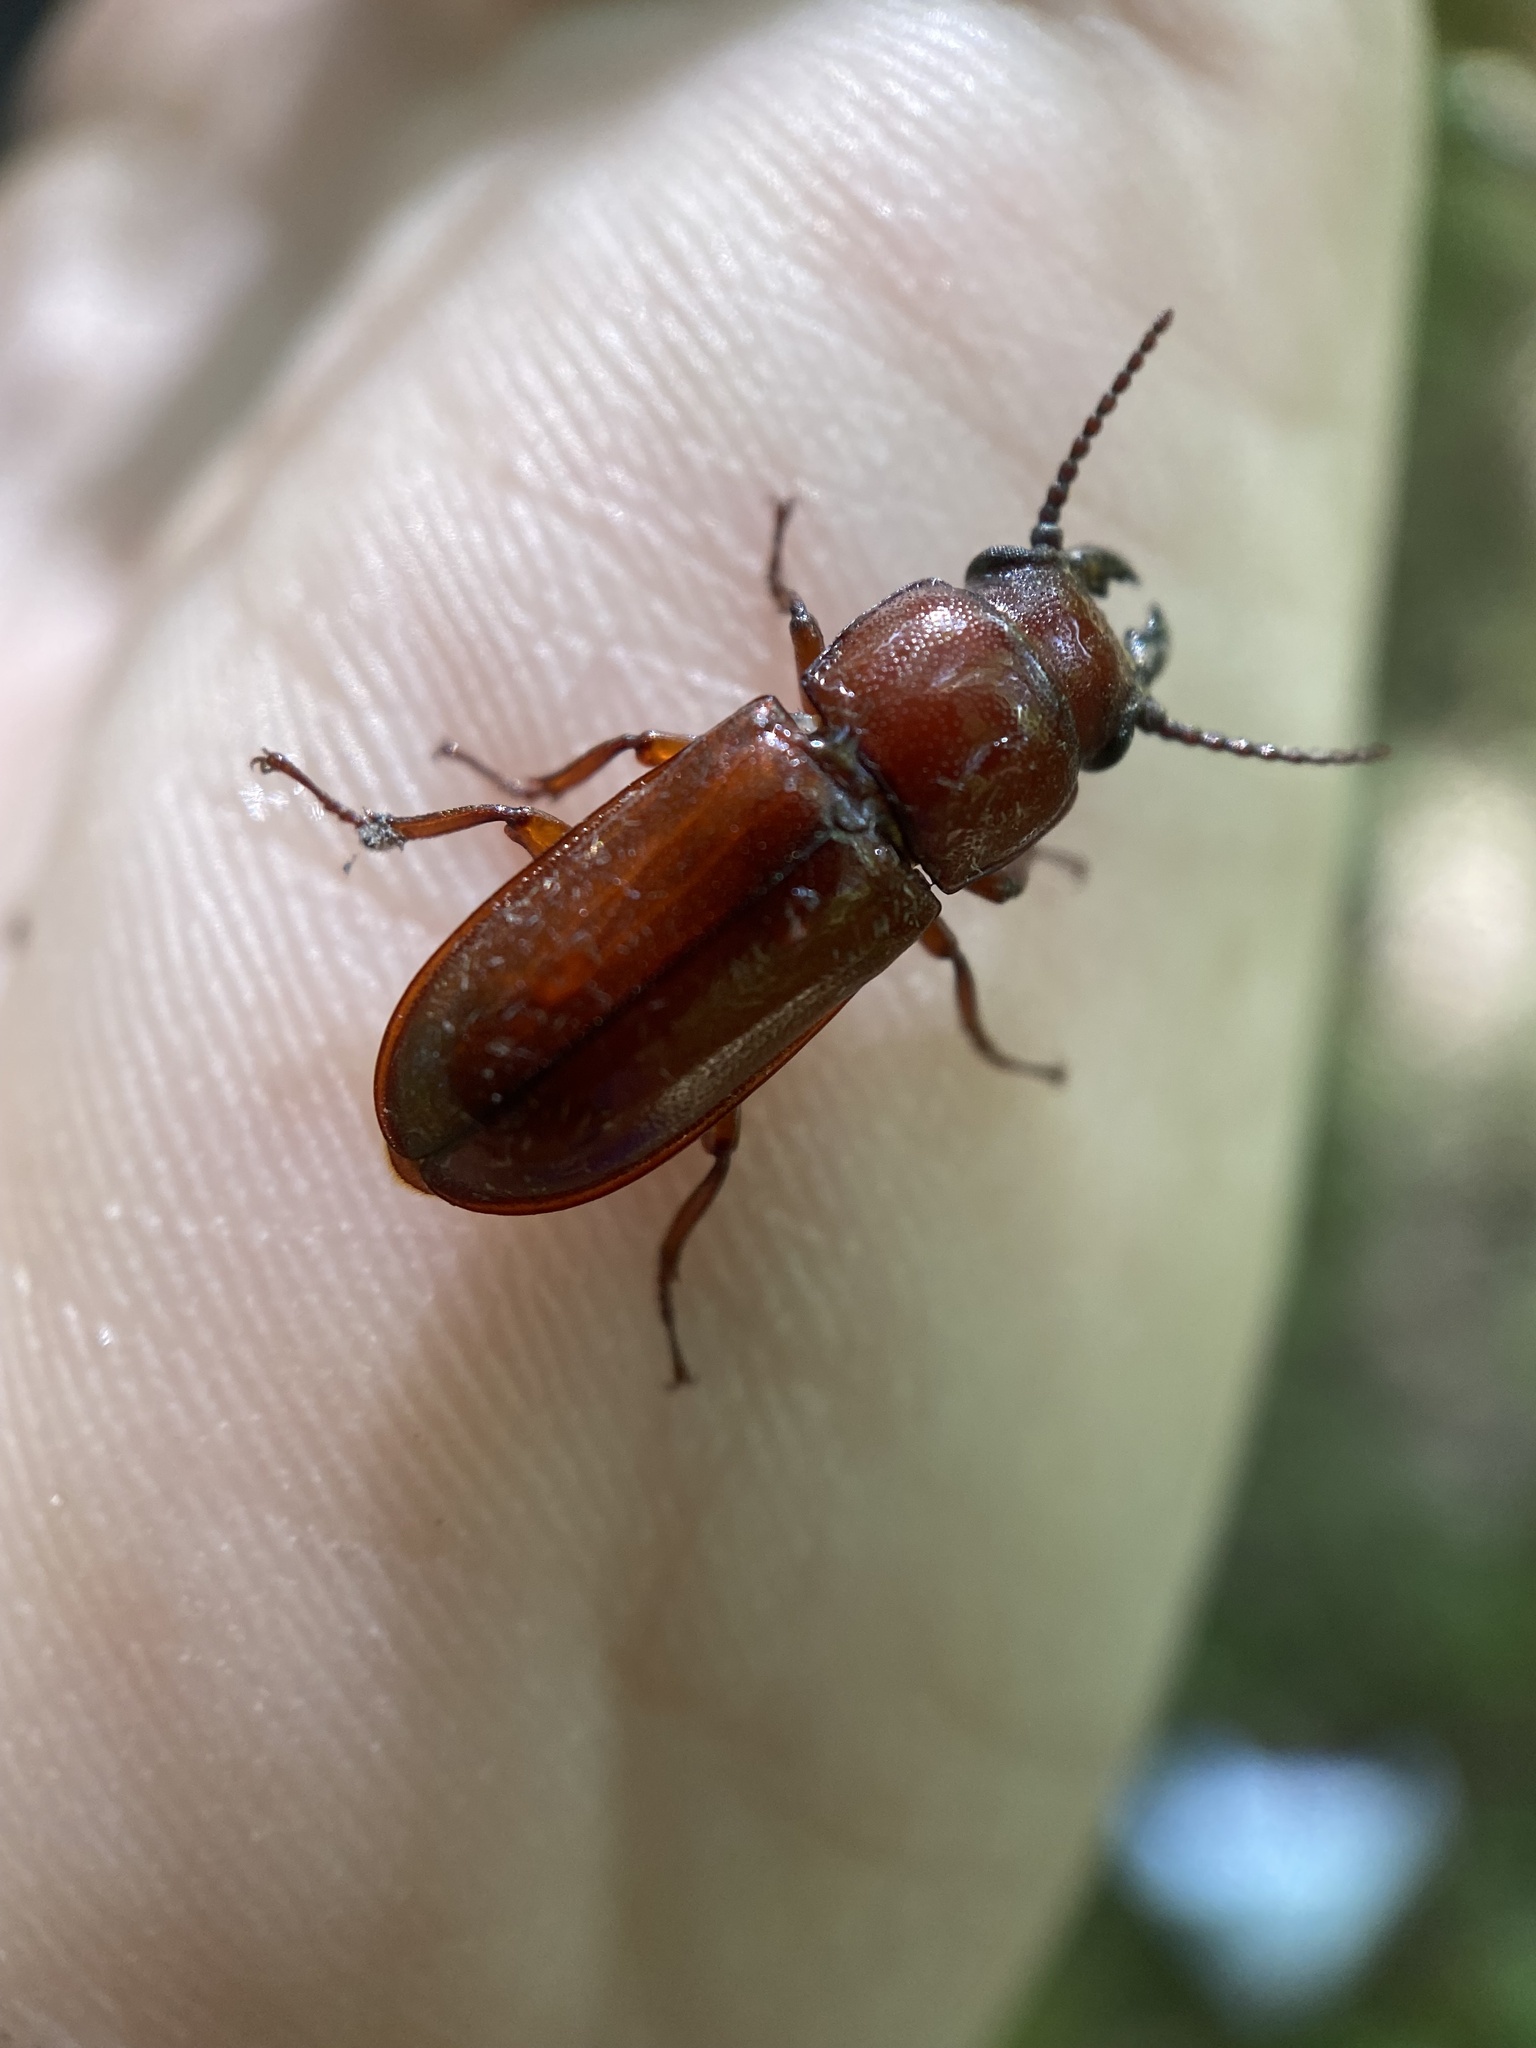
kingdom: Animalia
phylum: Arthropoda
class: Insecta
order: Coleoptera
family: Cerambycidae
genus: Neandra
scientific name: Neandra brunnea
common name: Pole borer
